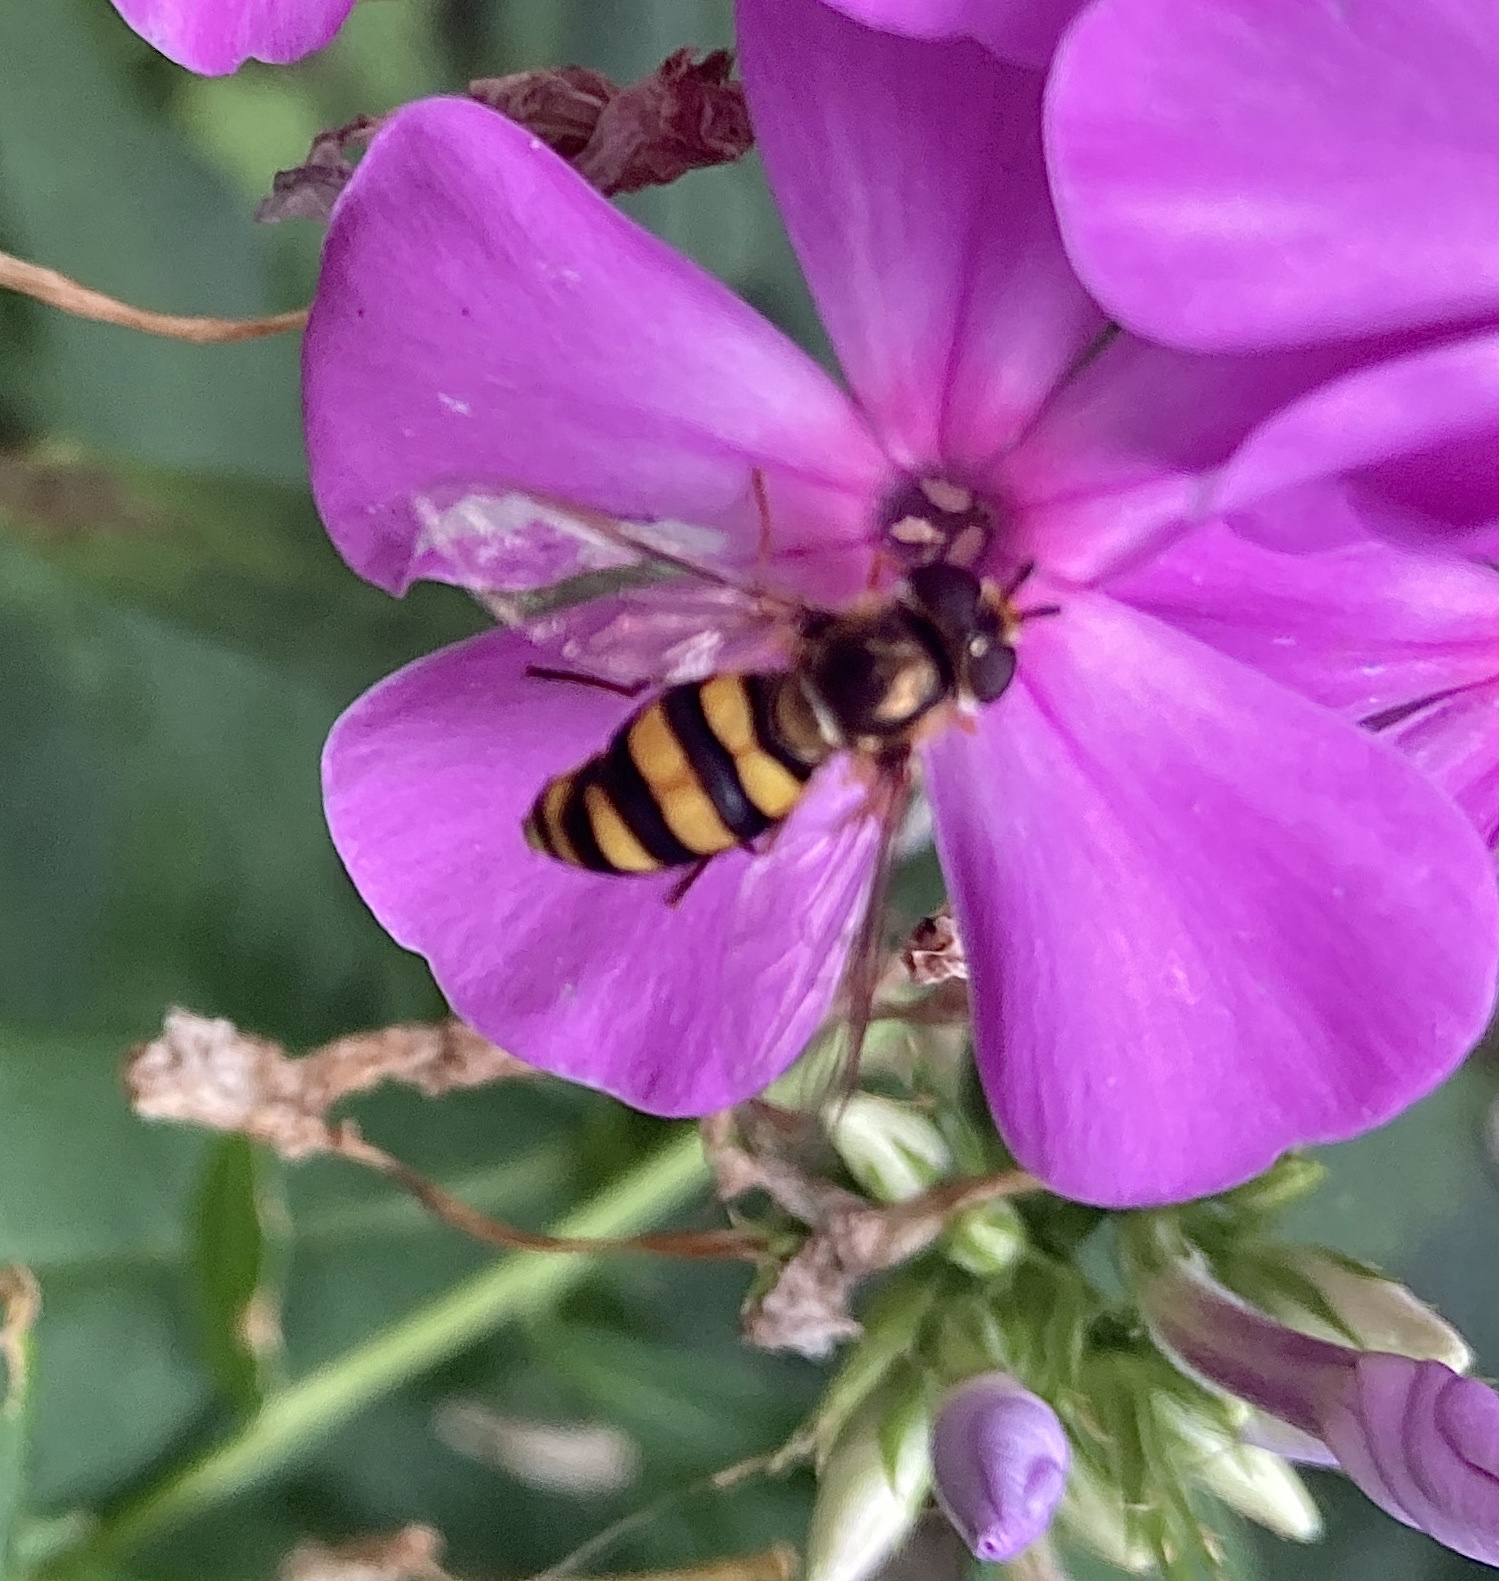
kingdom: Animalia
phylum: Arthropoda
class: Insecta
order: Diptera
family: Syrphidae
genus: Eupeodes
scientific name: Eupeodes
